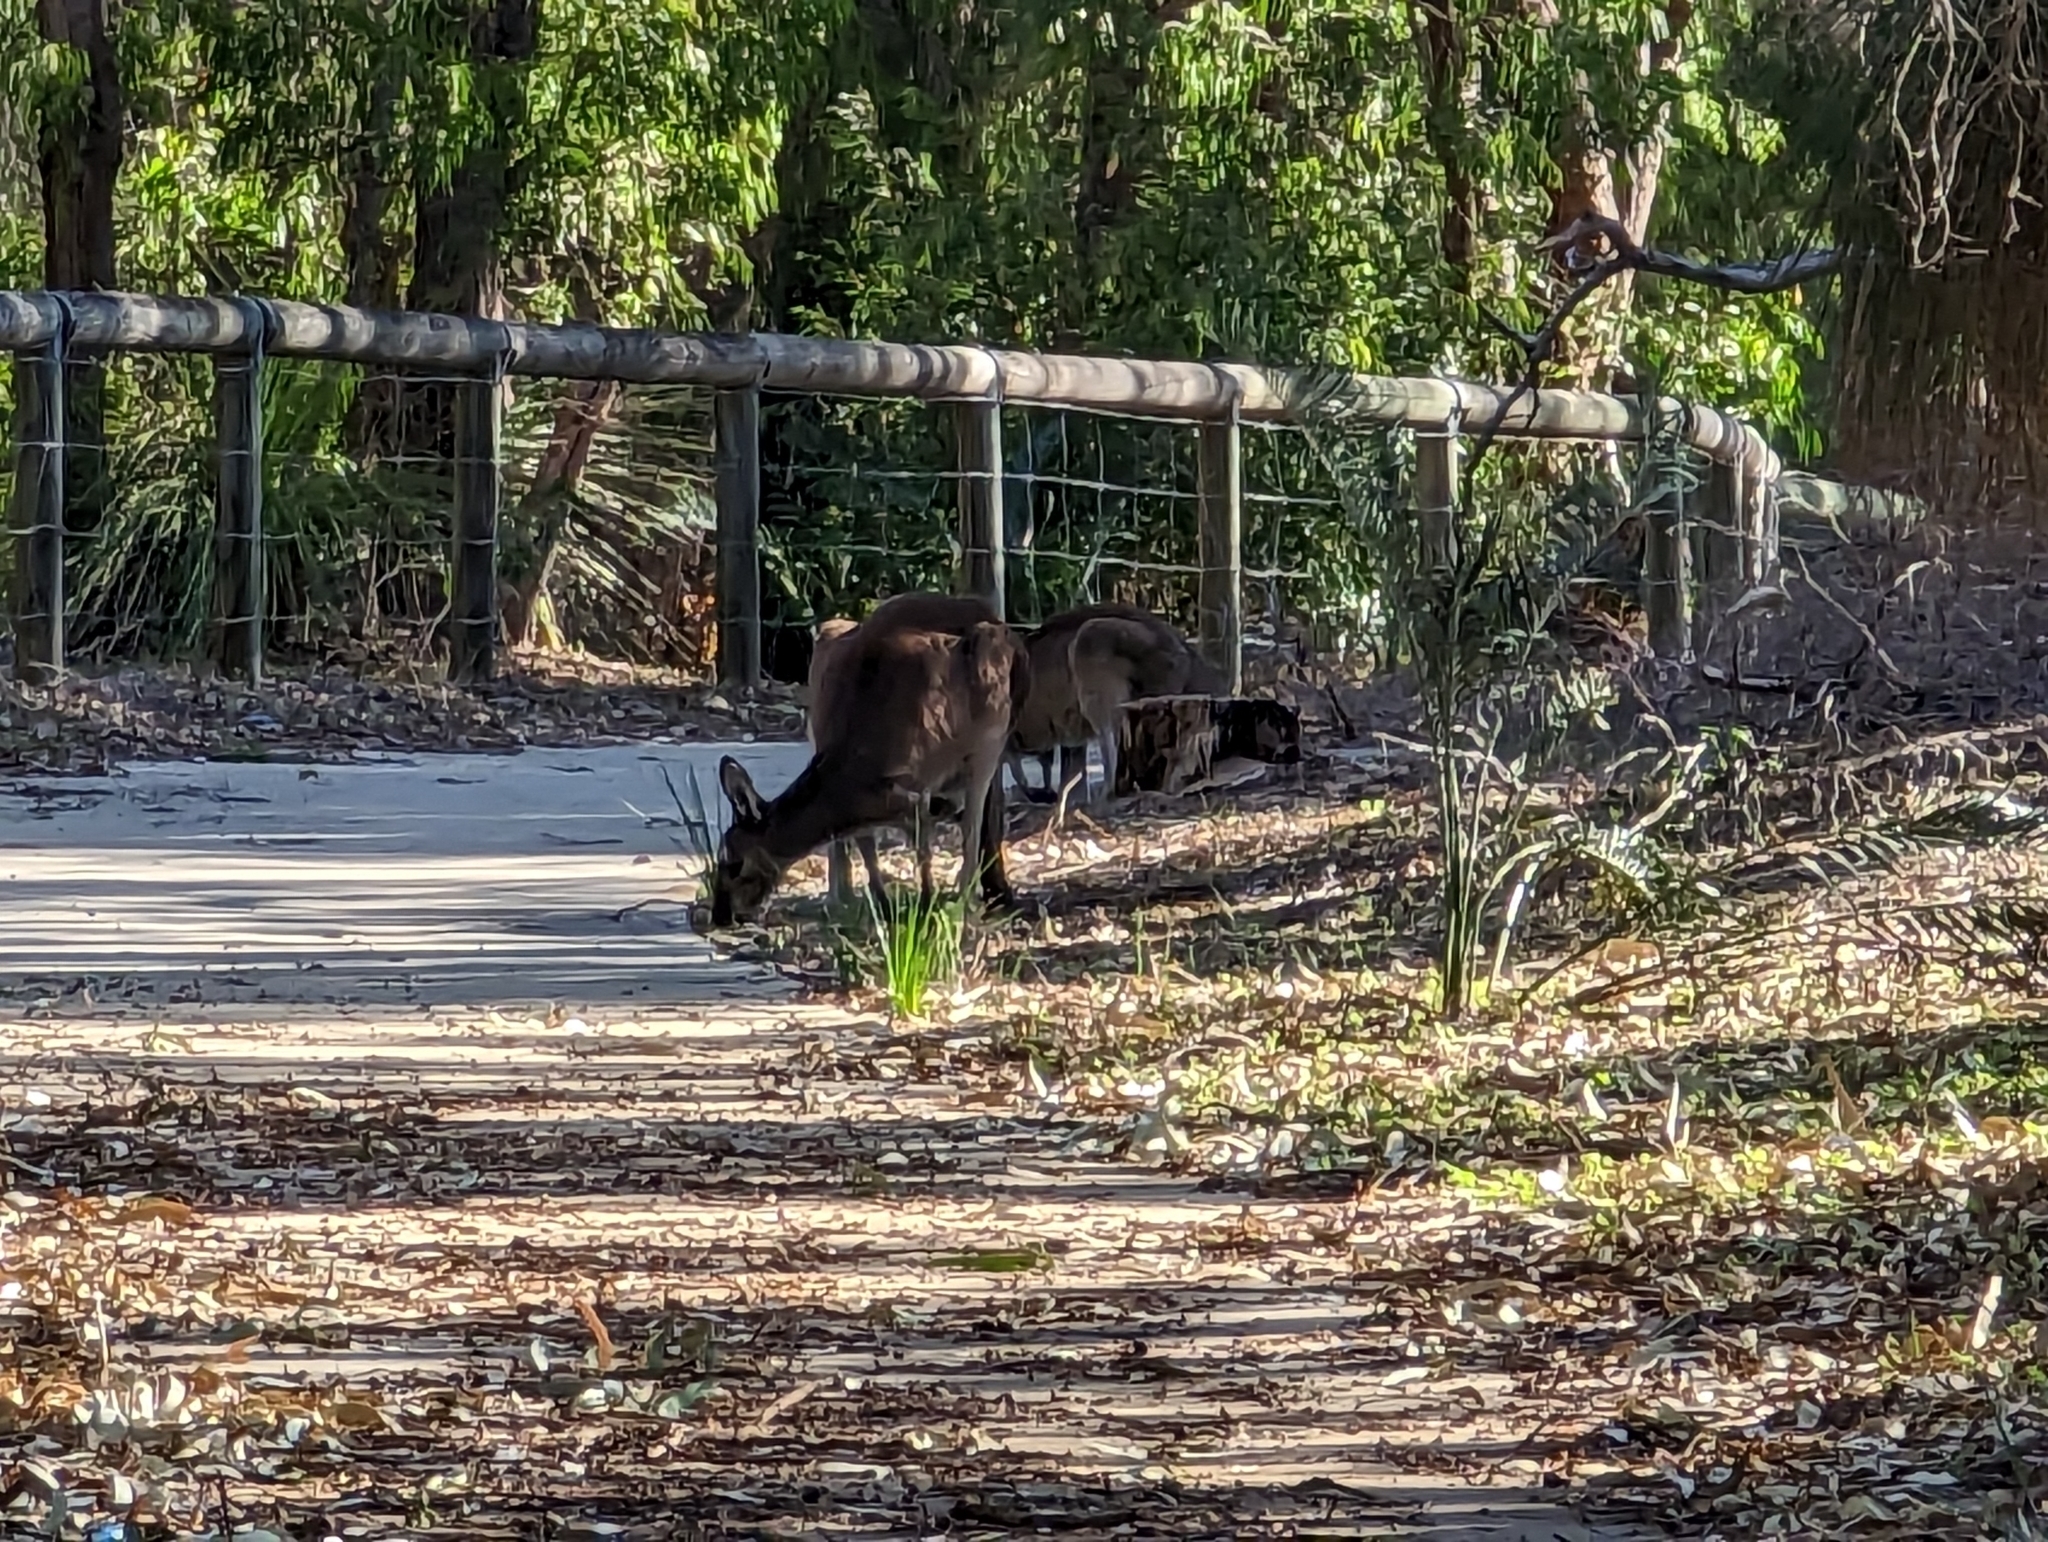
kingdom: Animalia
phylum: Chordata
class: Mammalia
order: Diprotodontia
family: Macropodidae
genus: Macropus
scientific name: Macropus fuliginosus
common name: Western grey kangaroo
